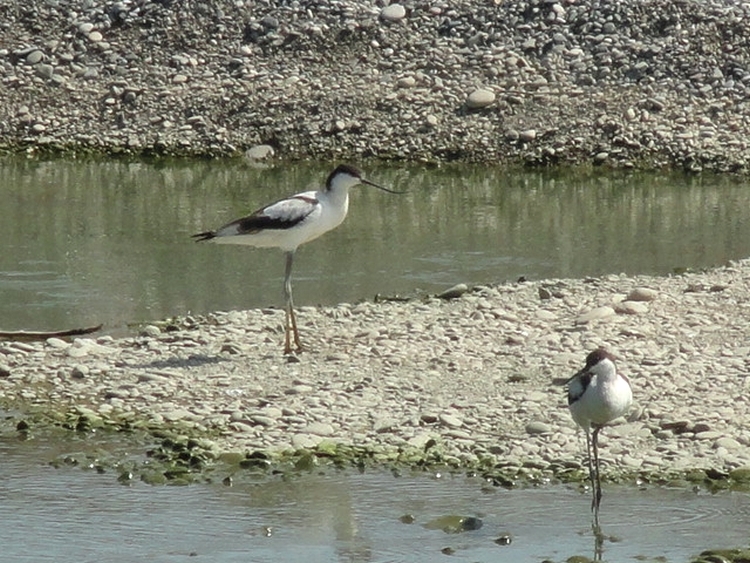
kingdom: Animalia
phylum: Chordata
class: Aves
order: Charadriiformes
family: Recurvirostridae
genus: Recurvirostra
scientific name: Recurvirostra avosetta
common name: Pied avocet
